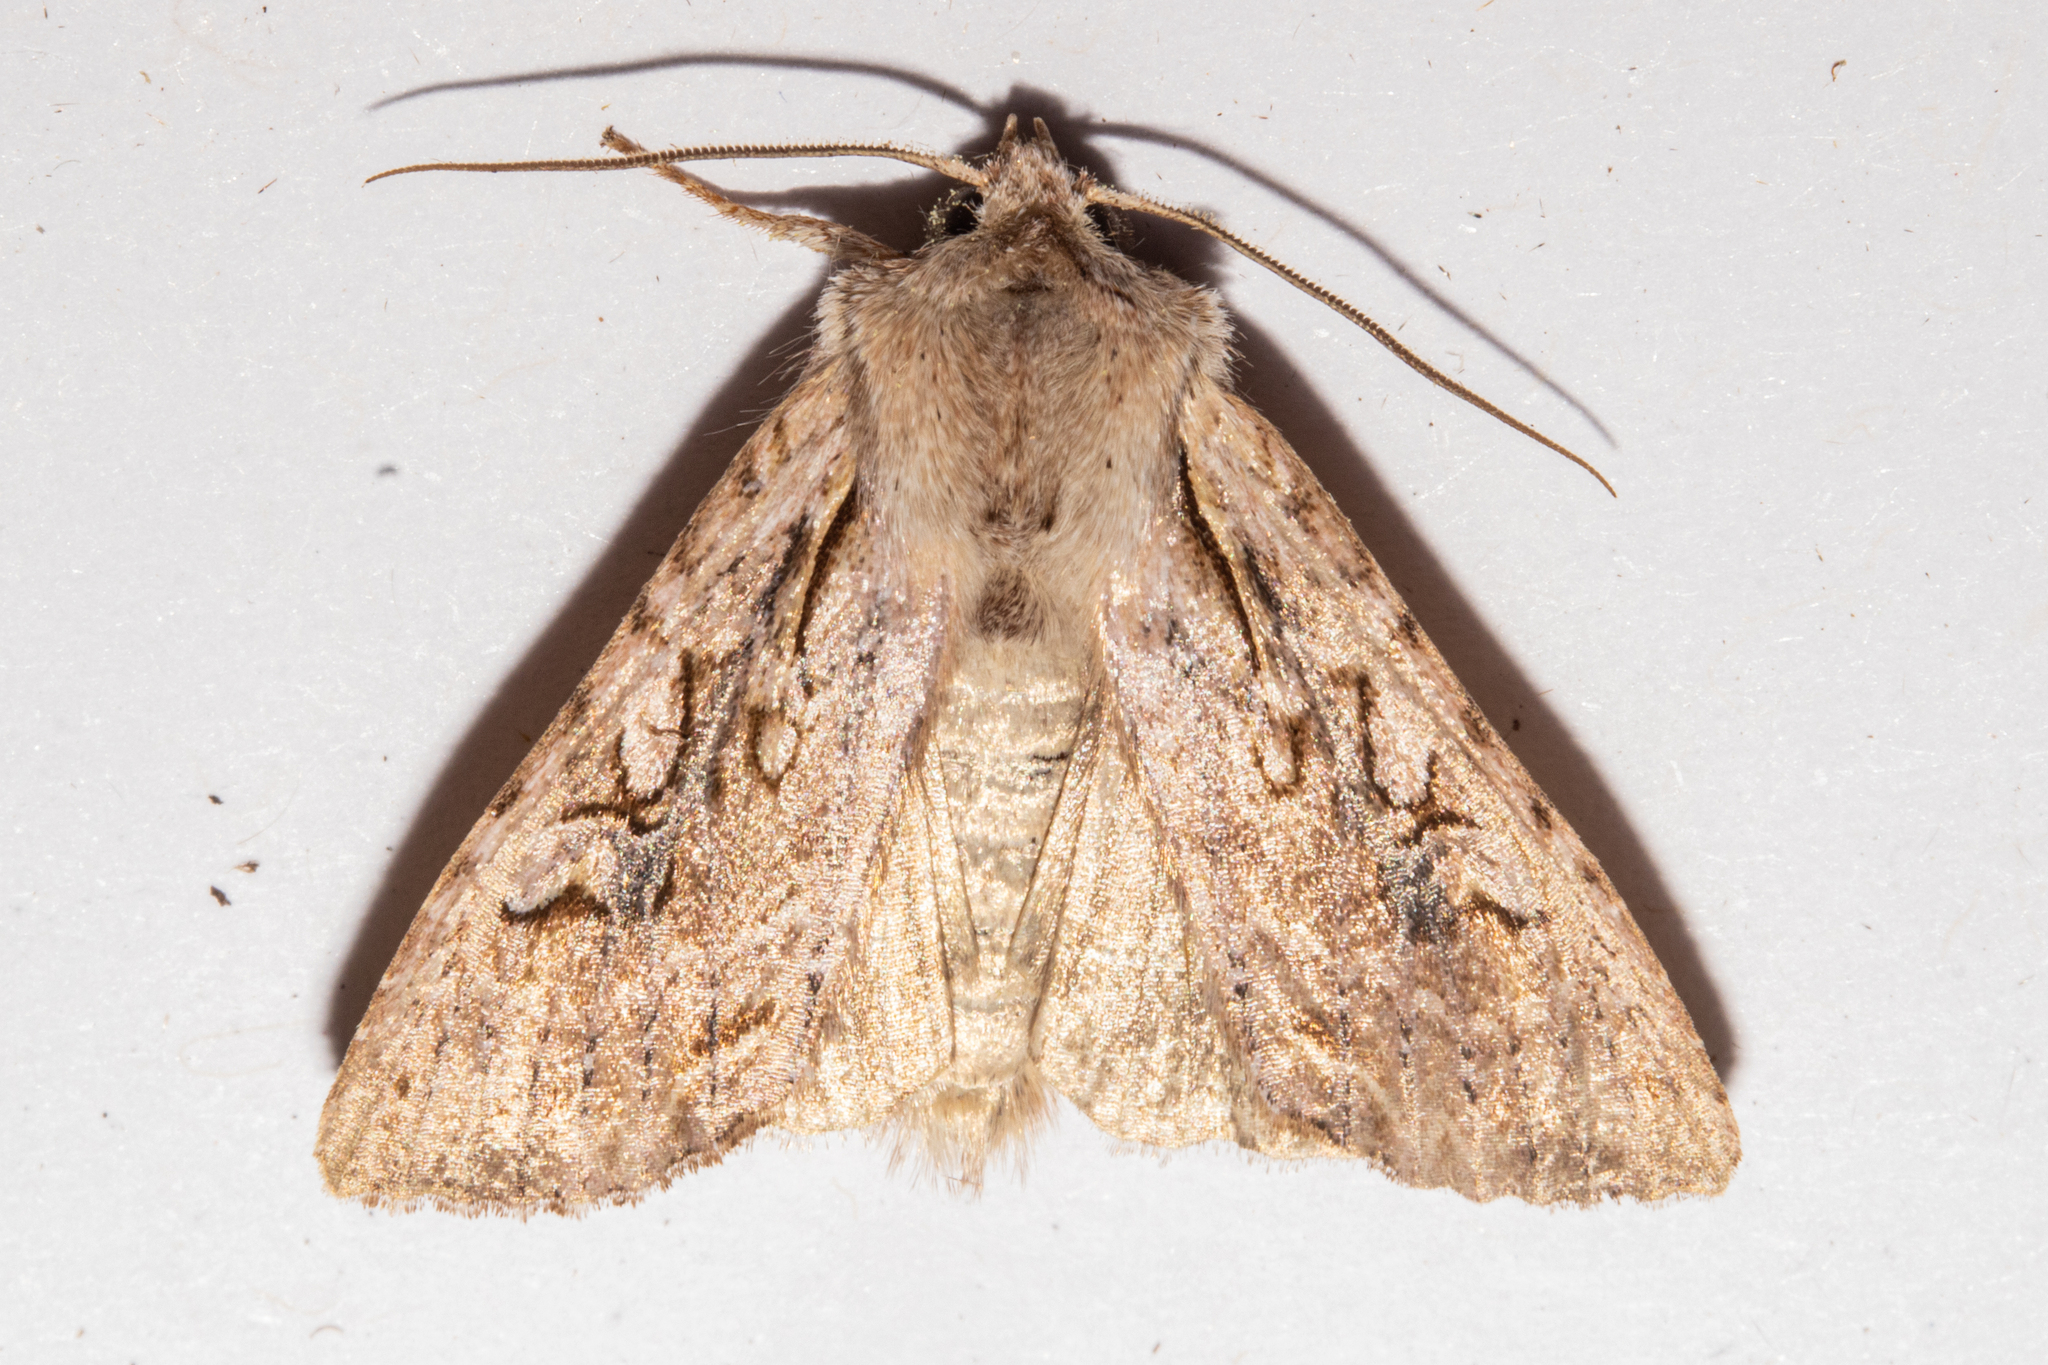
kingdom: Animalia
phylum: Arthropoda
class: Insecta
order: Lepidoptera
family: Noctuidae
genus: Ichneutica
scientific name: Ichneutica lindsayorum
